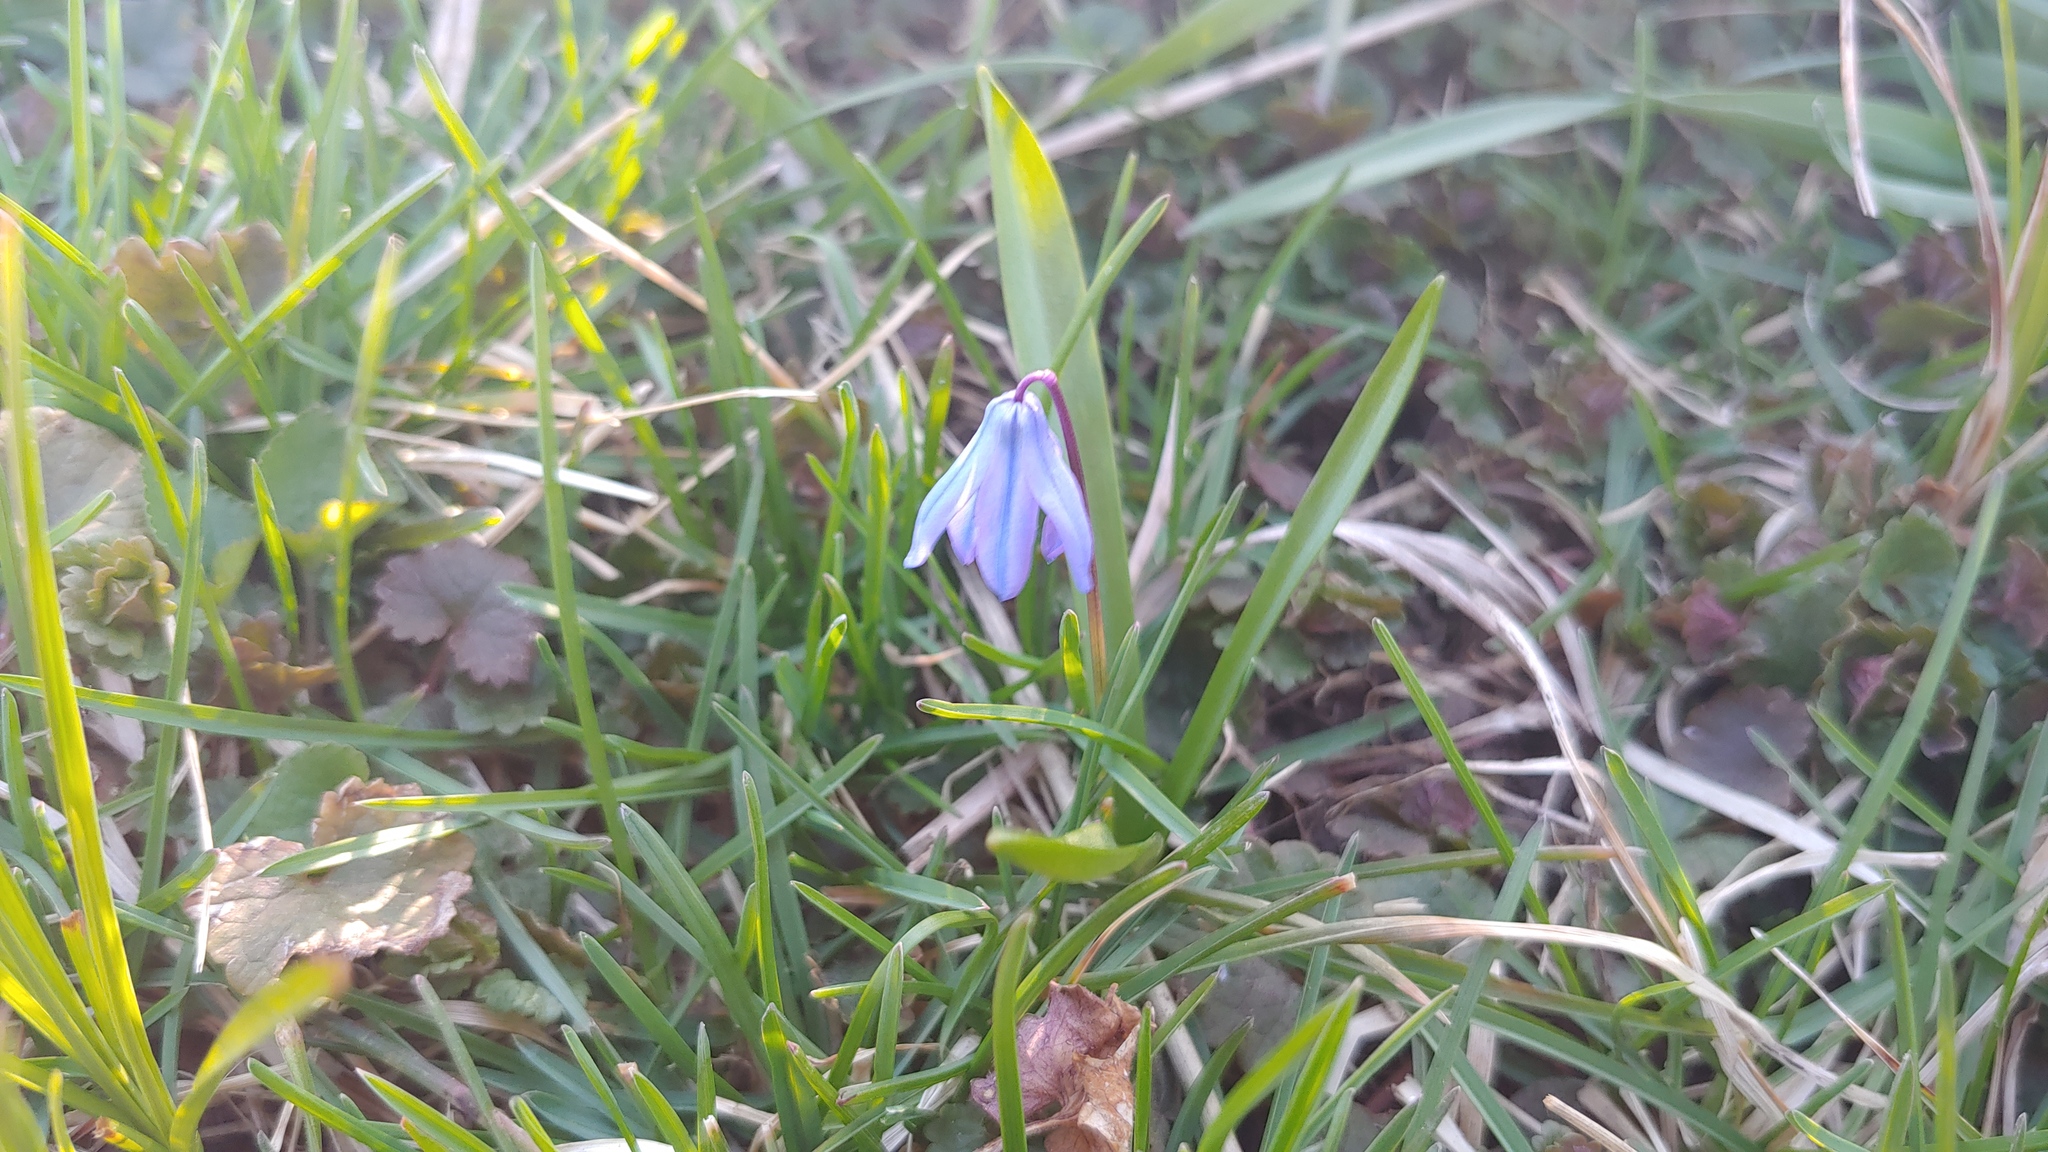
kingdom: Plantae
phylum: Tracheophyta
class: Liliopsida
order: Asparagales
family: Asparagaceae
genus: Scilla
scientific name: Scilla siberica
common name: Siberian squill
